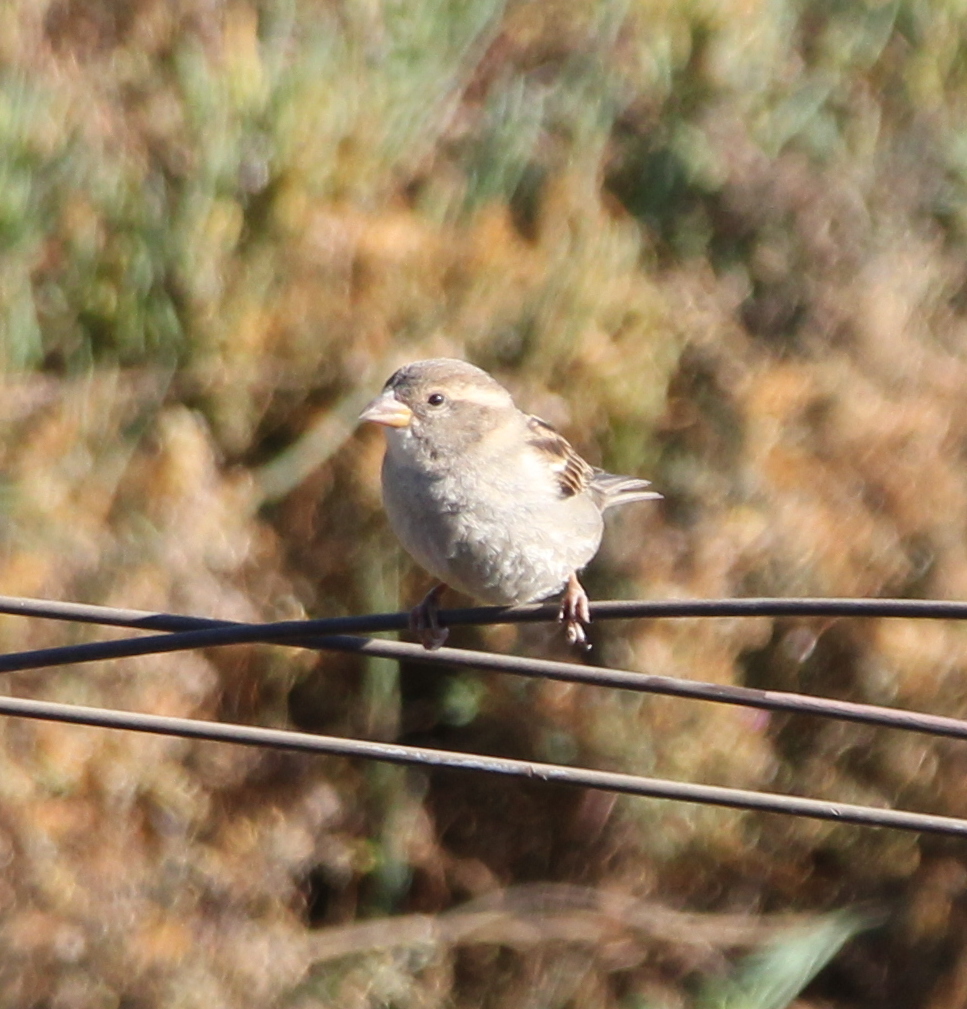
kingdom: Animalia
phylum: Chordata
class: Aves
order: Passeriformes
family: Passeridae
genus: Passer
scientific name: Passer domesticus
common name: House sparrow
